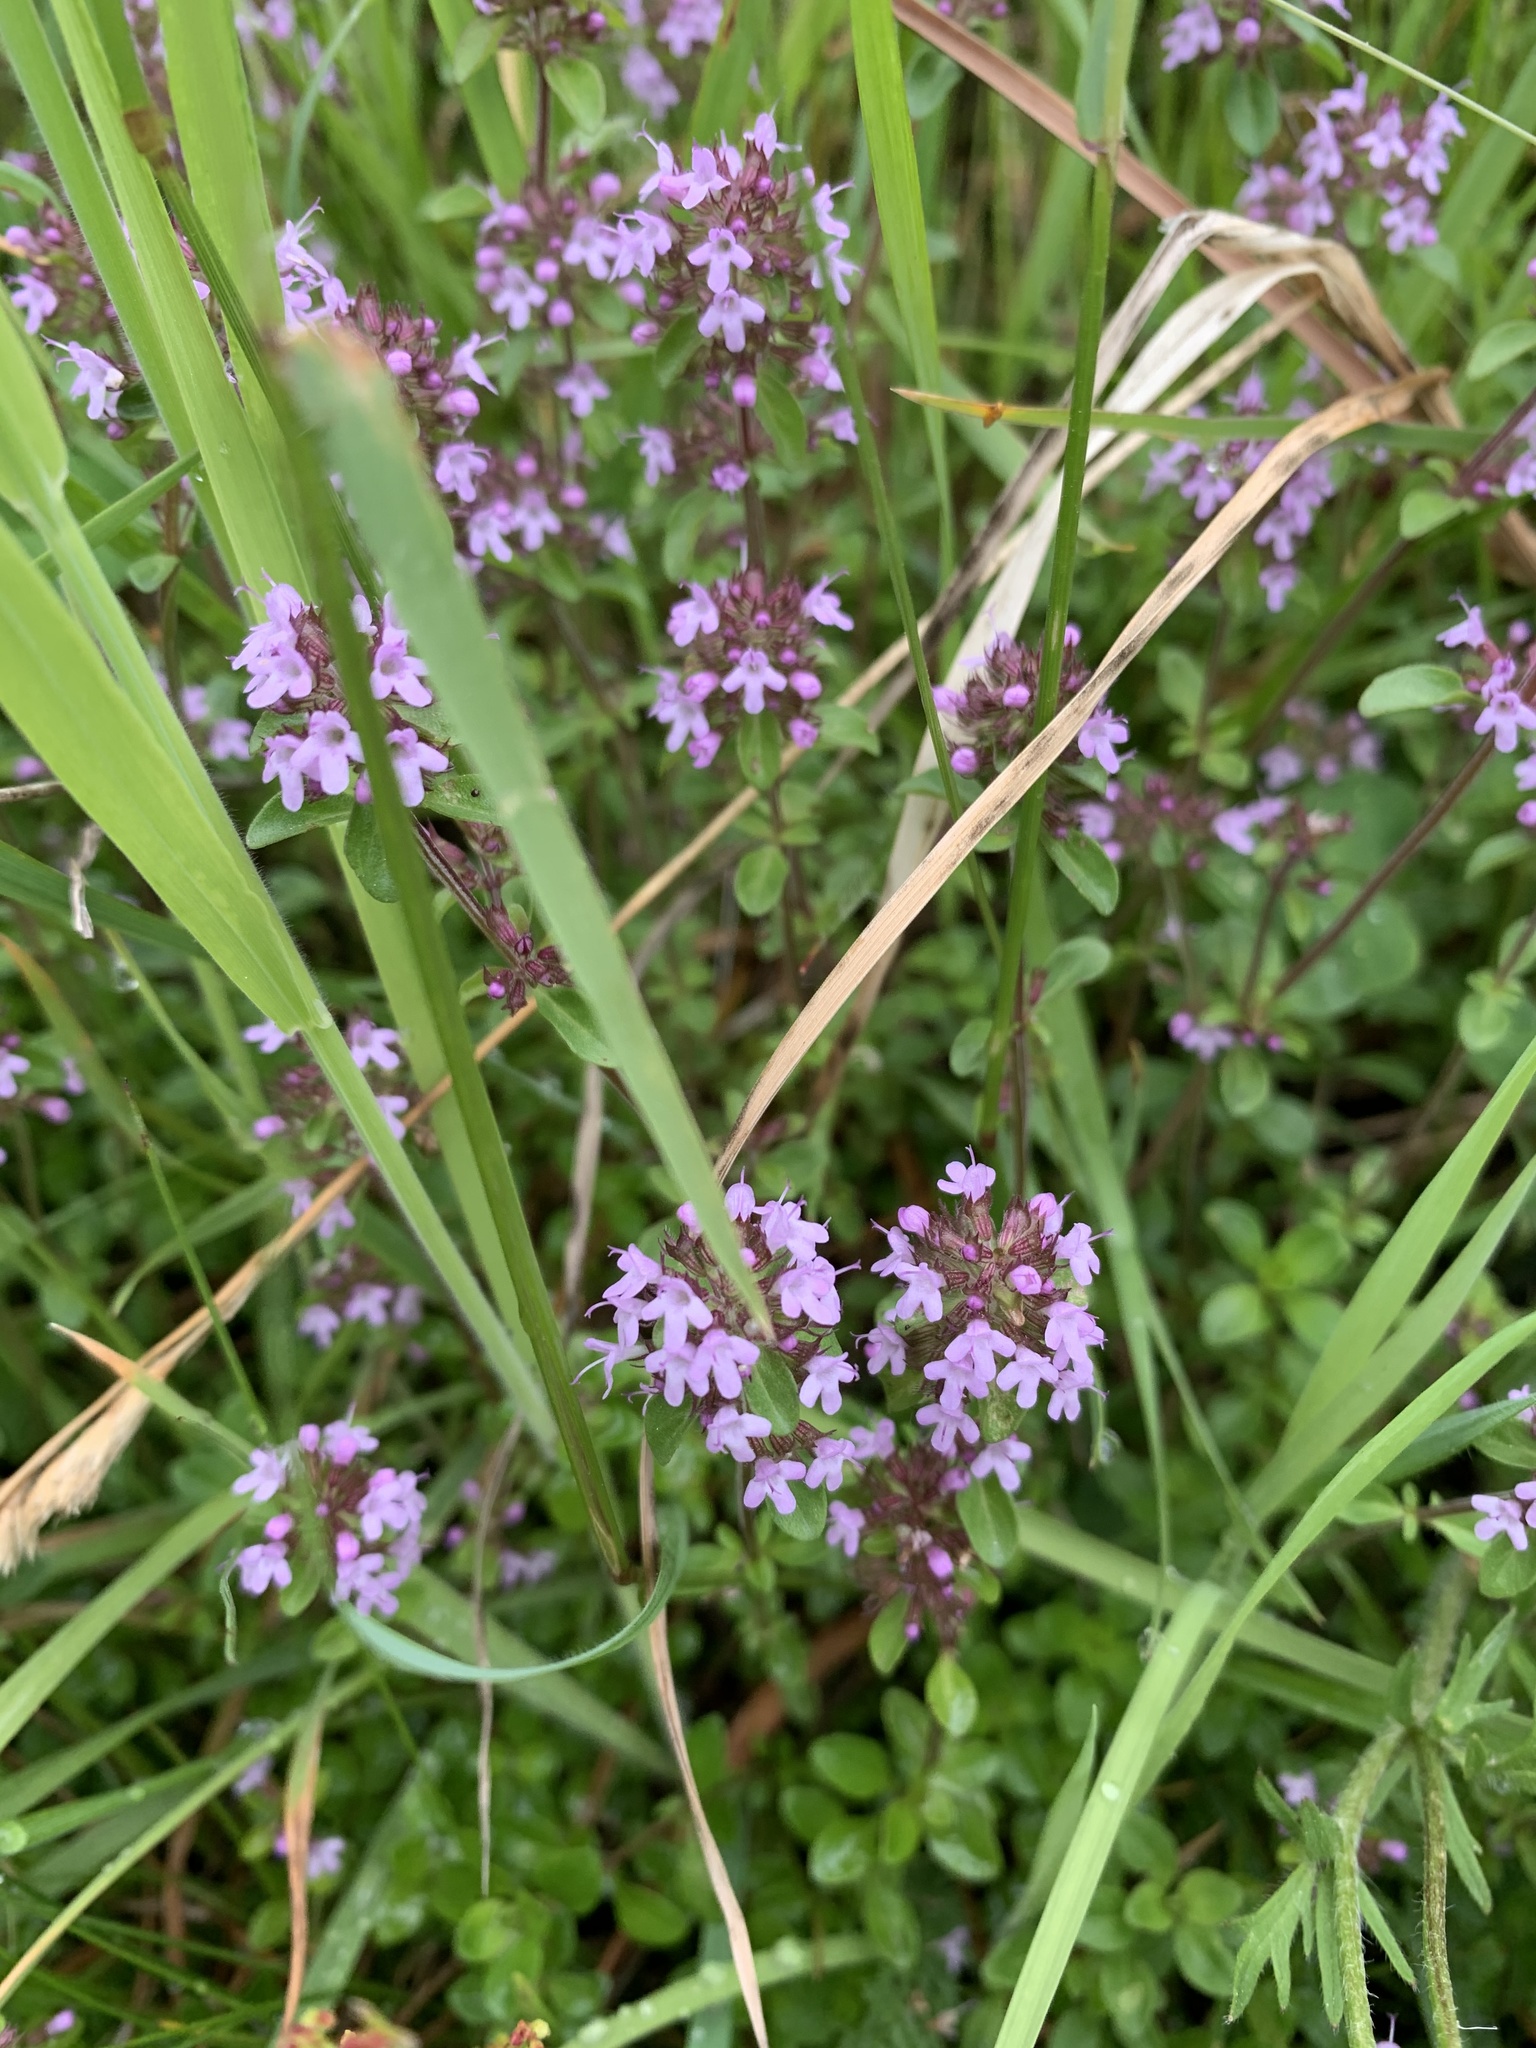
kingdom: Plantae
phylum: Tracheophyta
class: Magnoliopsida
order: Lamiales
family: Lamiaceae
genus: Thymus
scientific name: Thymus pulegioides
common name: Large thyme
